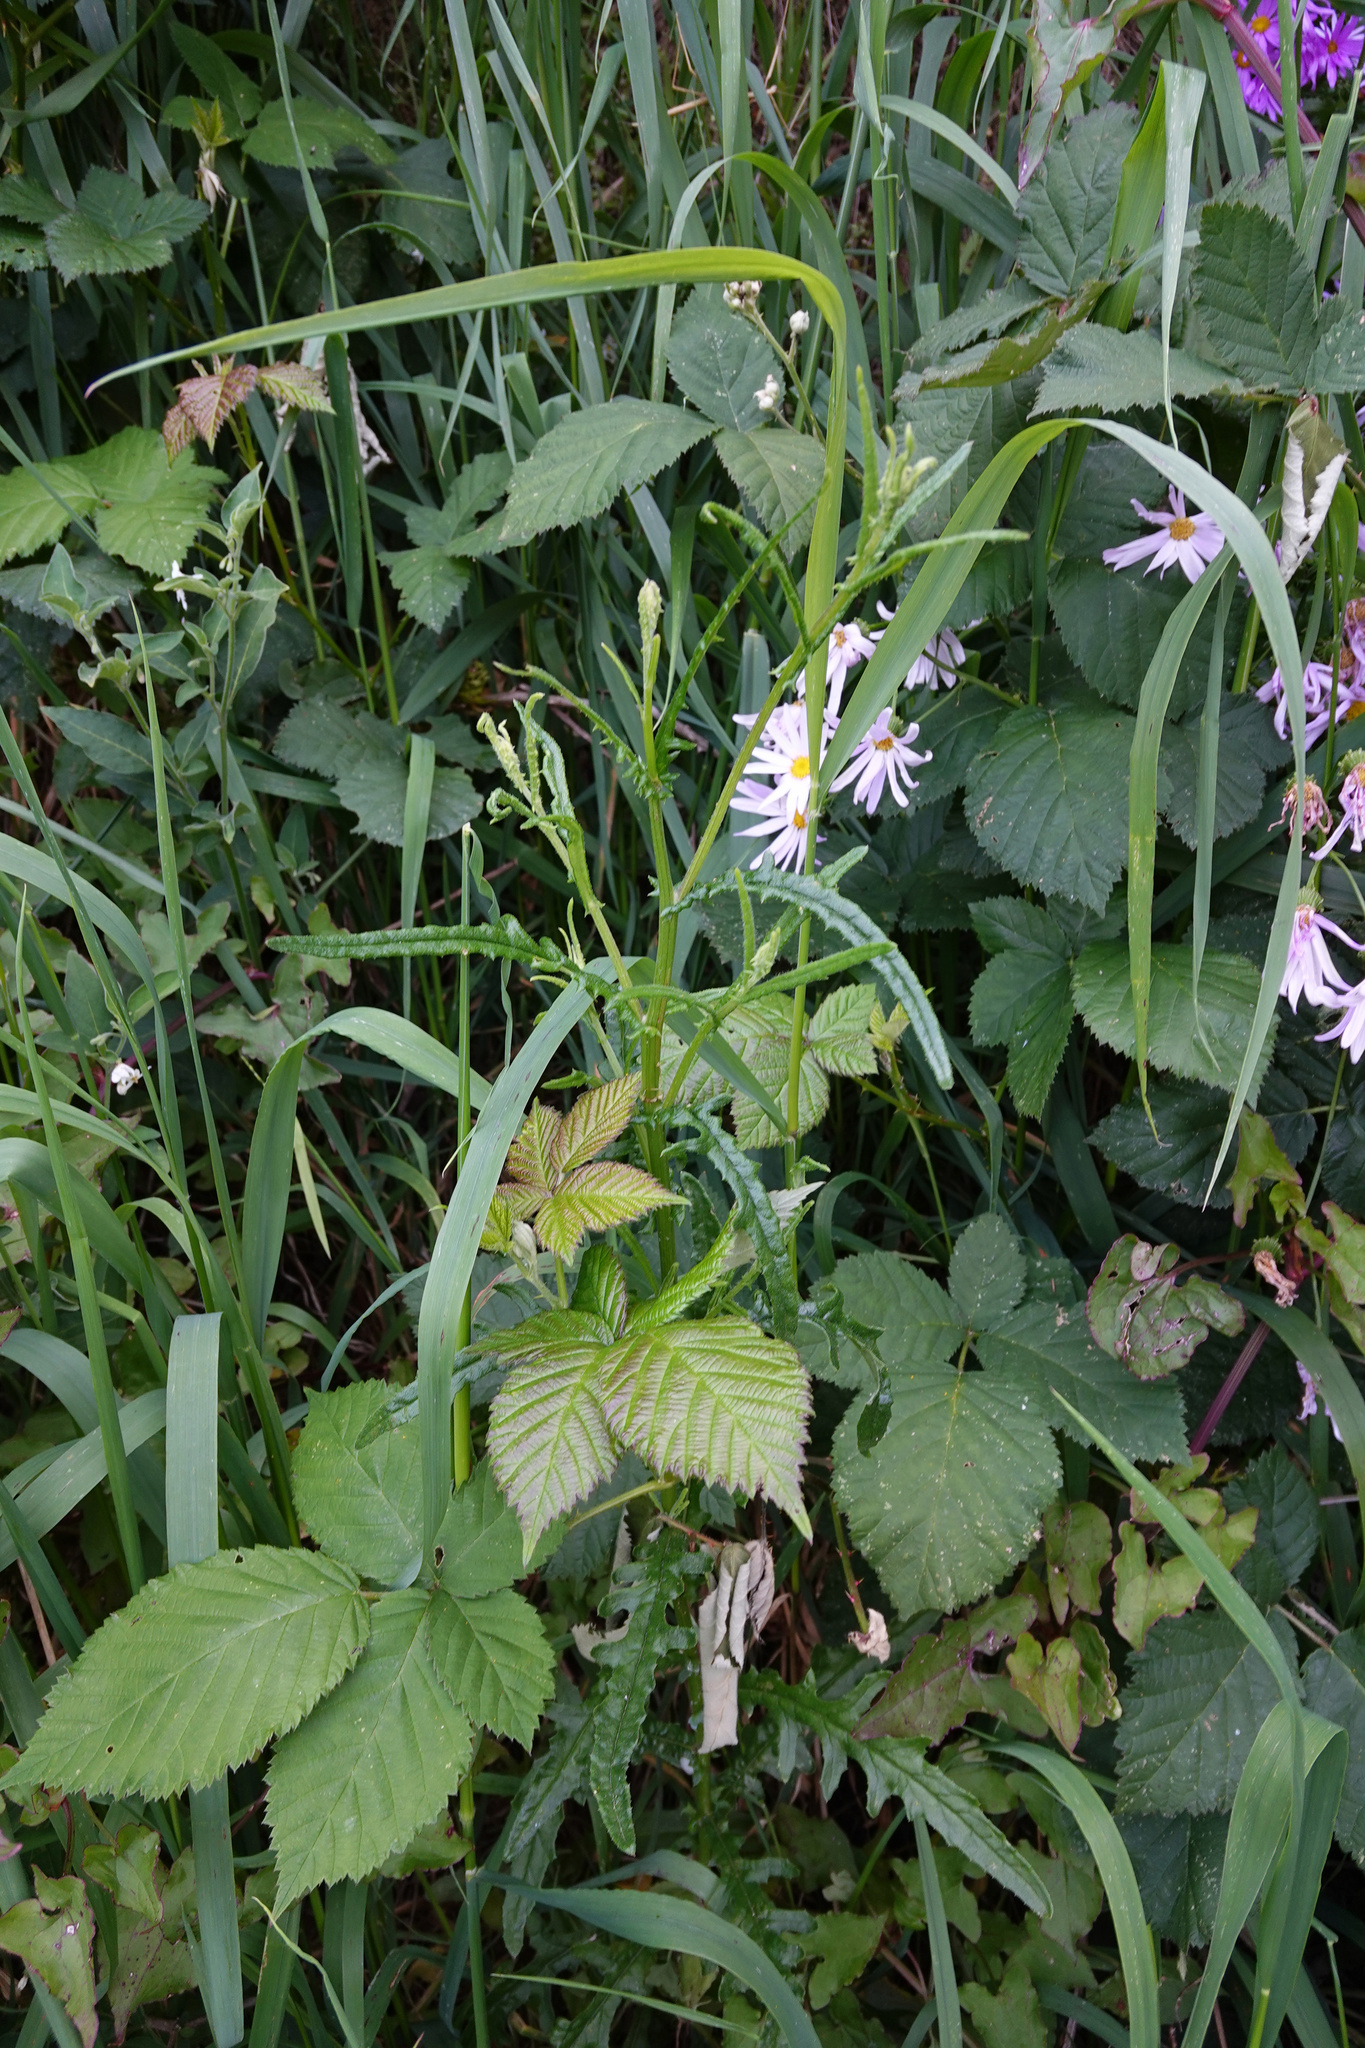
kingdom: Plantae
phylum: Tracheophyta
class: Magnoliopsida
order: Asterales
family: Asteraceae
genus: Senecio
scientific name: Senecio hispidulus
